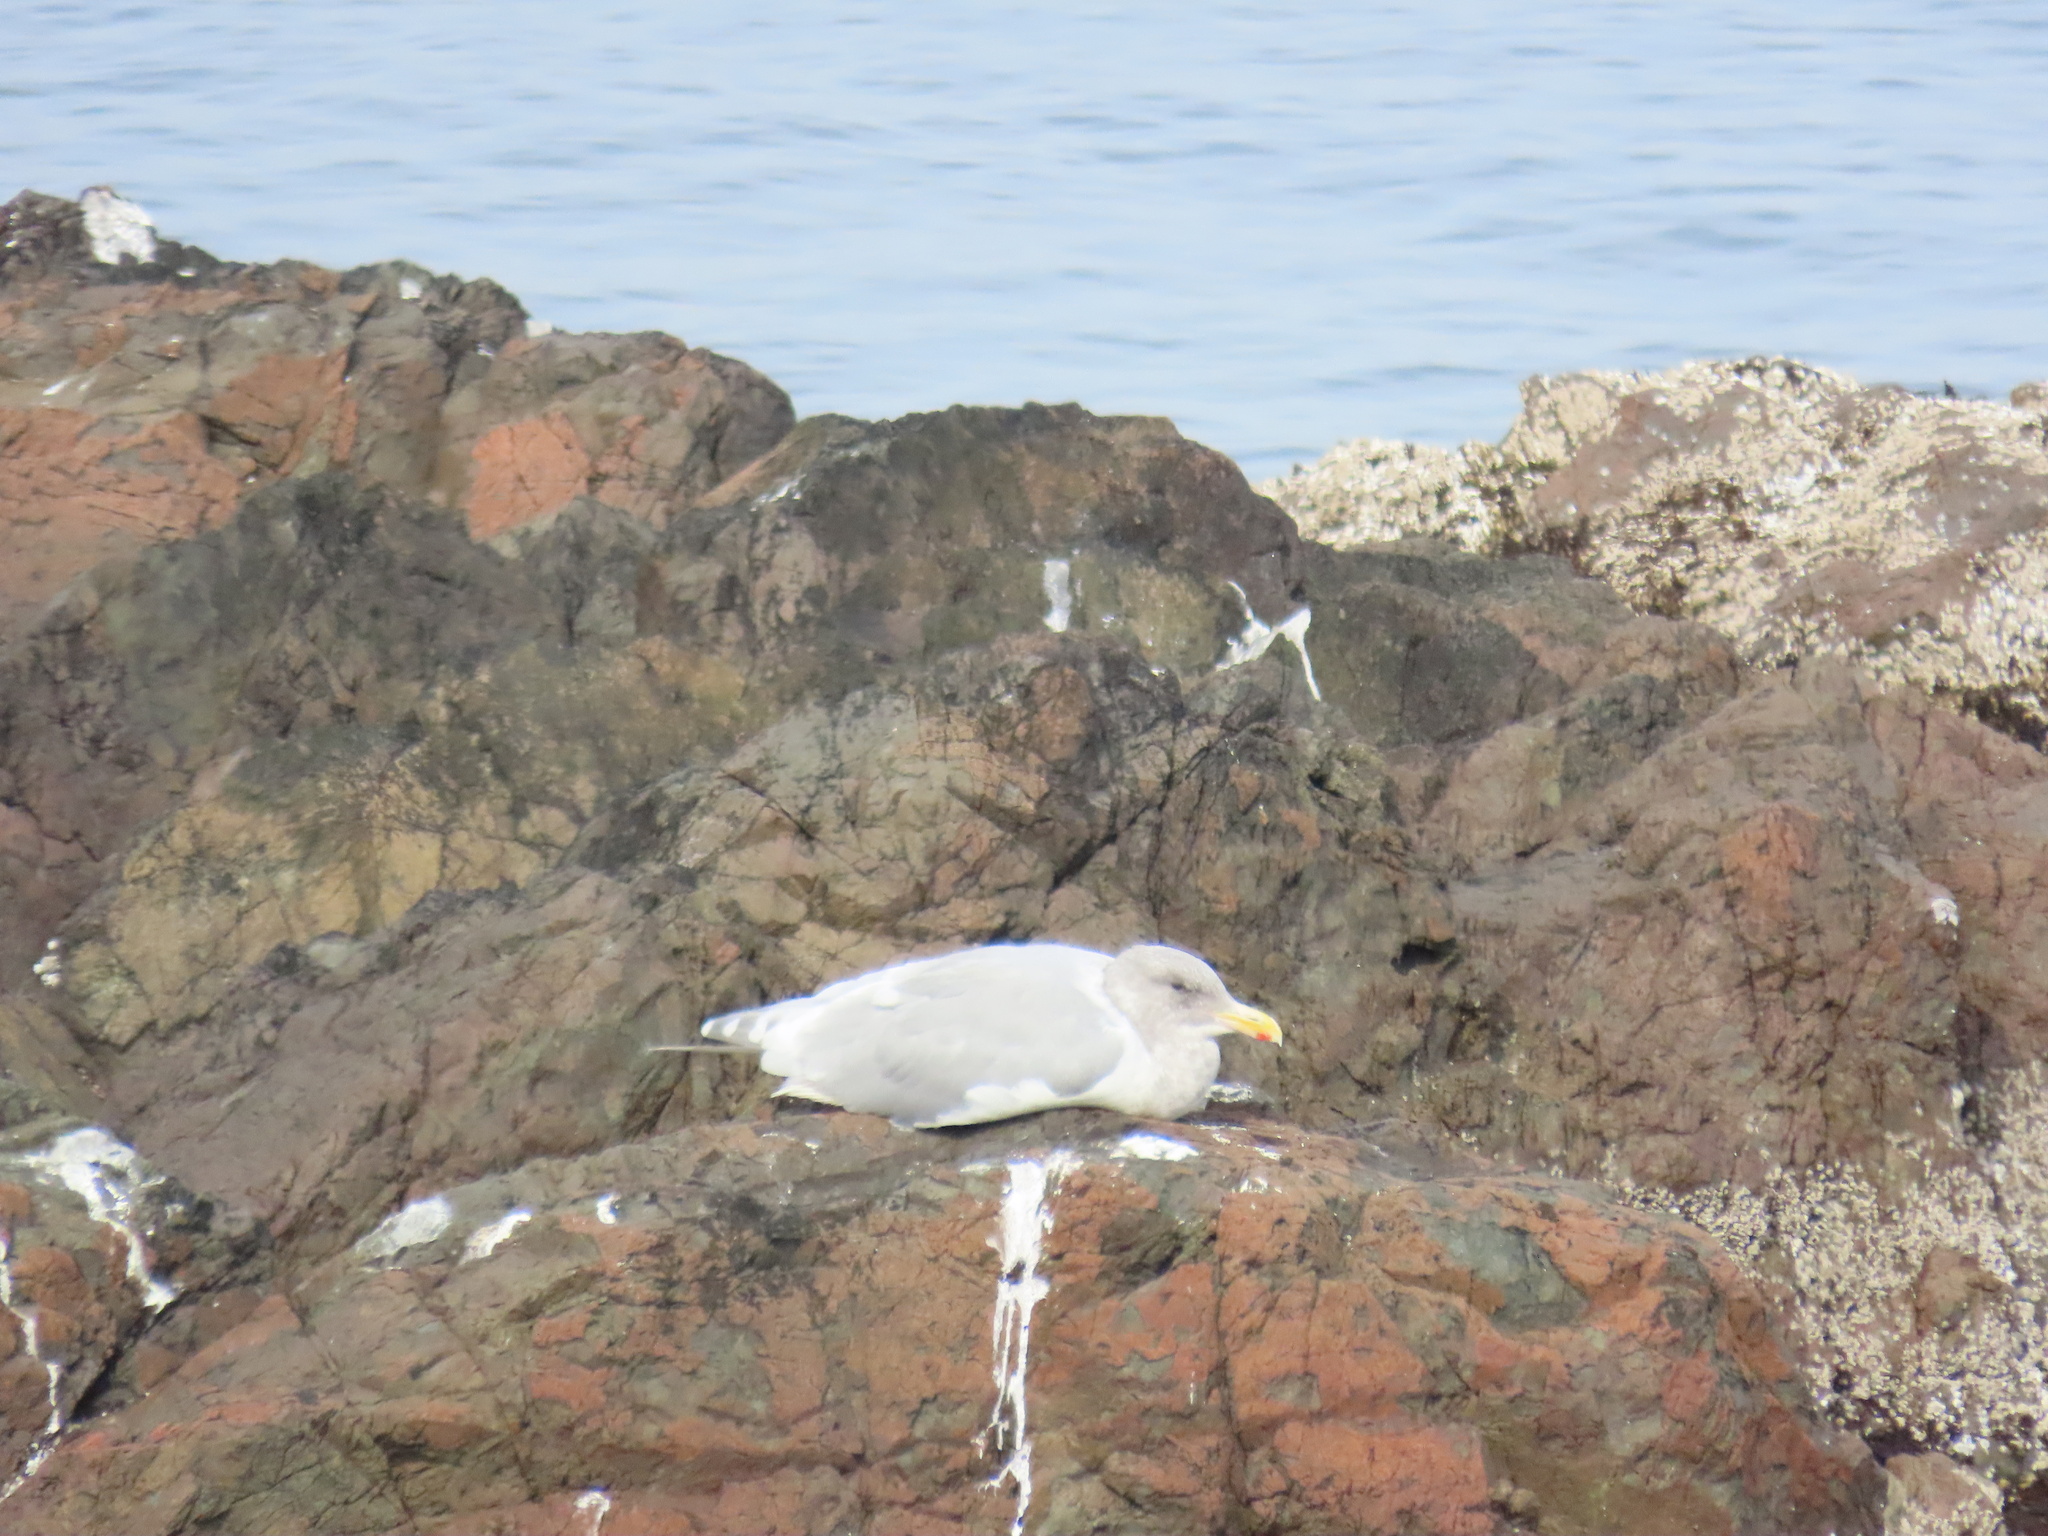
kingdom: Animalia
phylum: Chordata
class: Aves
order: Charadriiformes
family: Laridae
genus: Larus
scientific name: Larus glaucescens
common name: Glaucous-winged gull
